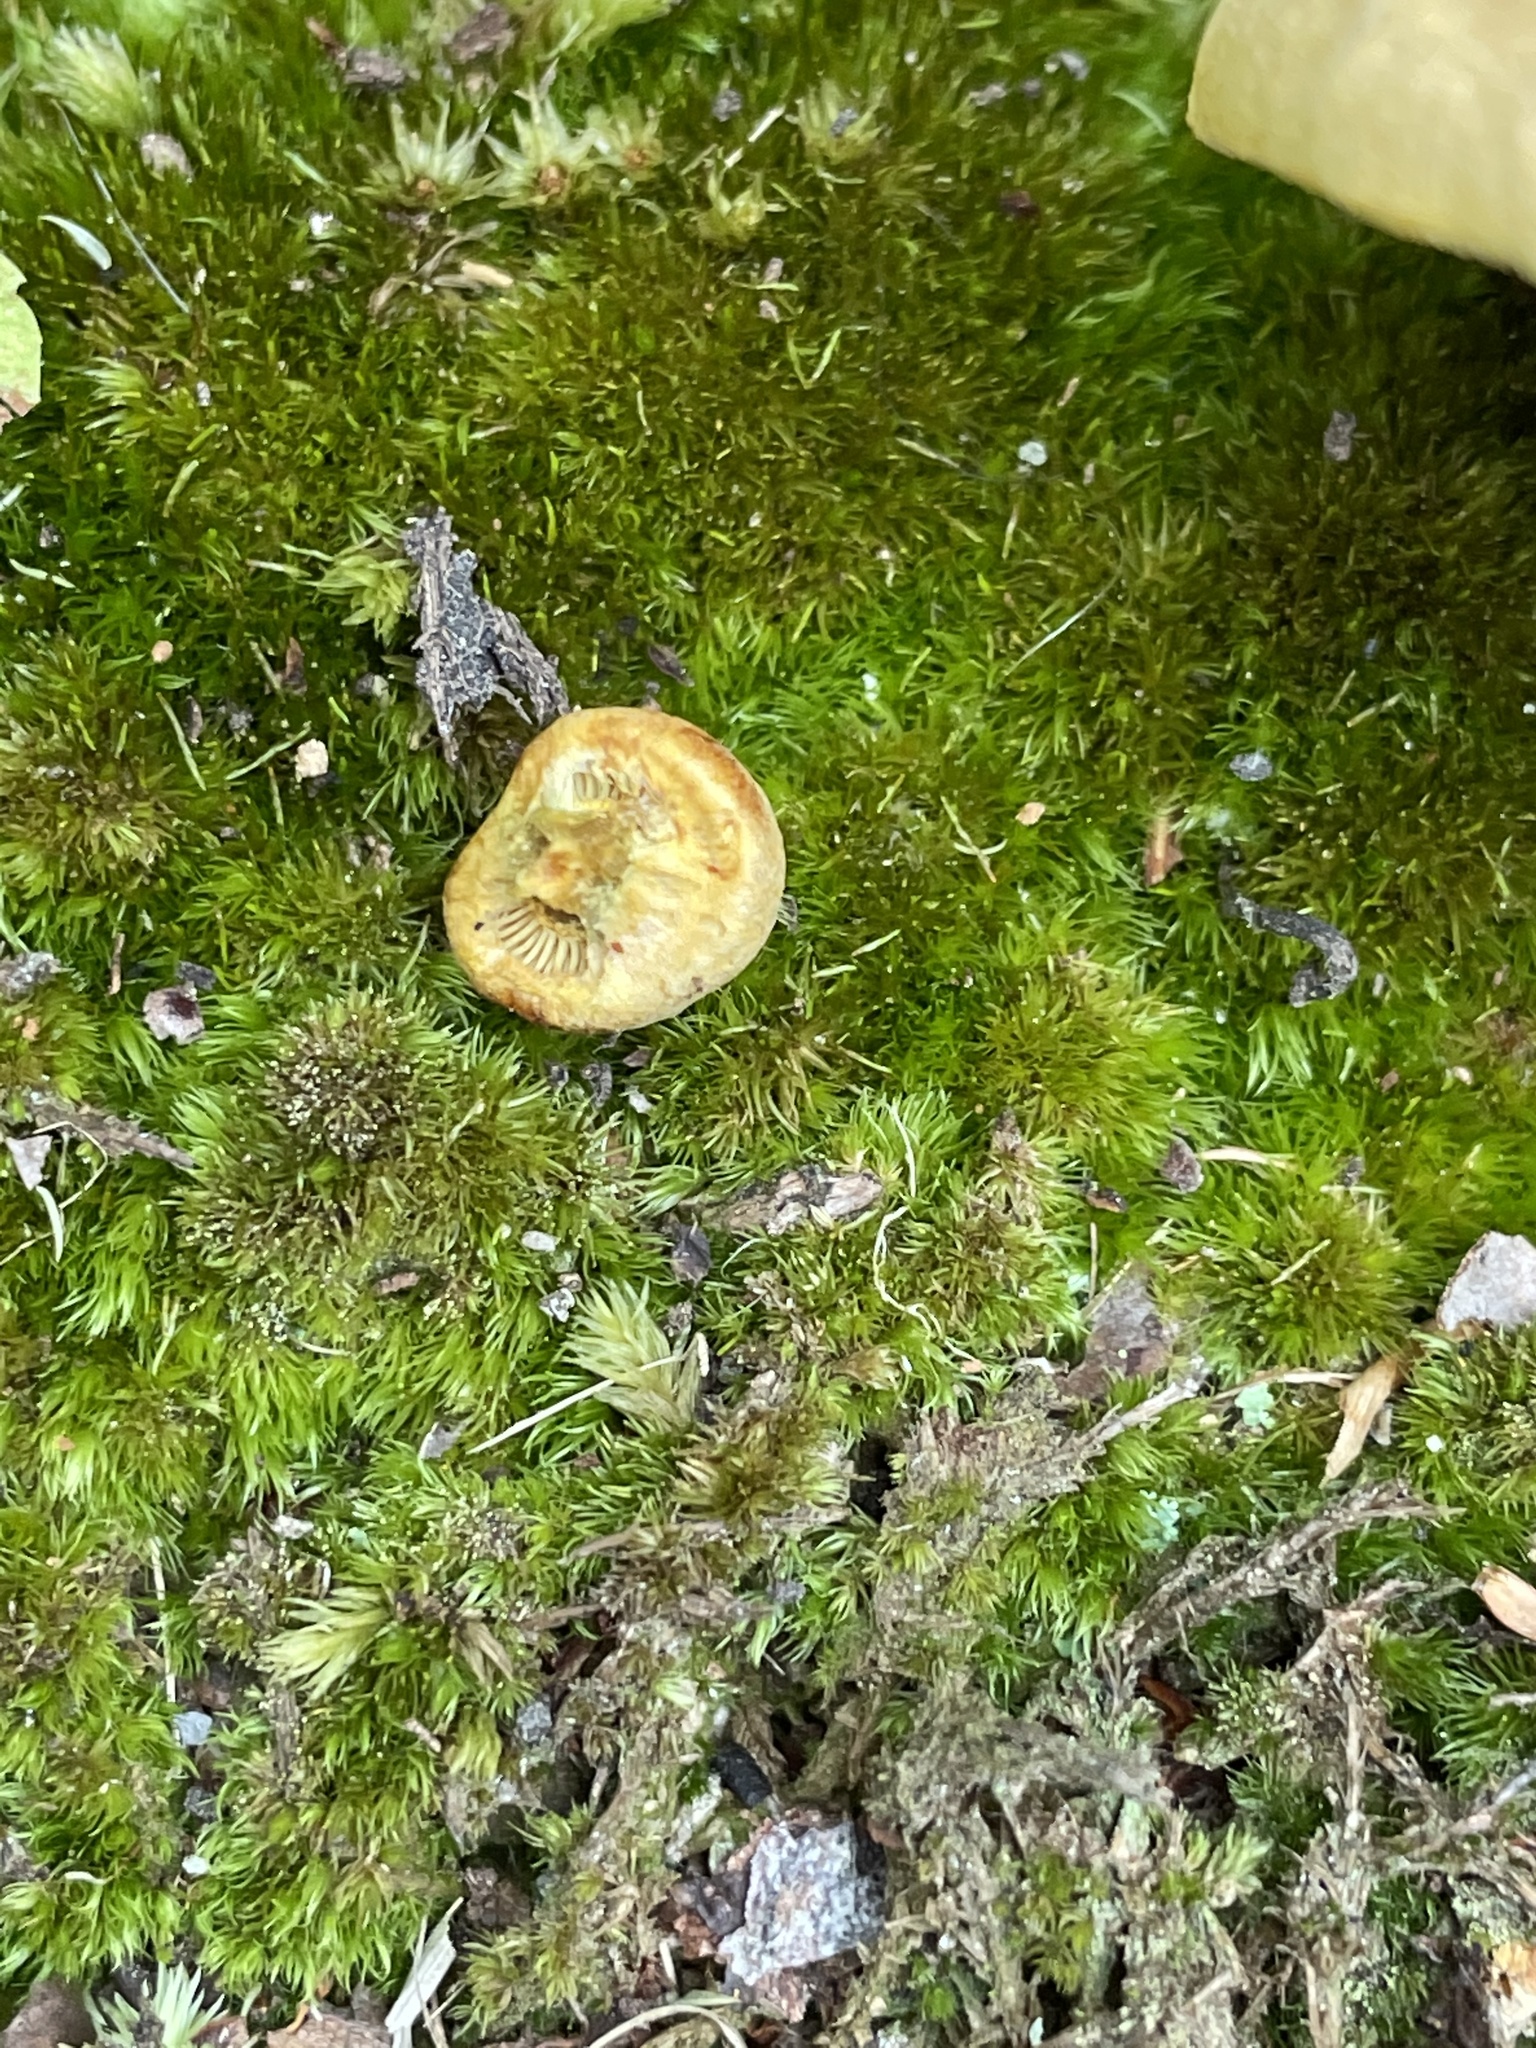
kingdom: Fungi
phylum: Basidiomycota
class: Agaricomycetes
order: Agaricales
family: Hymenogastraceae
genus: Gymnopilus
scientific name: Gymnopilus subspectabilis
